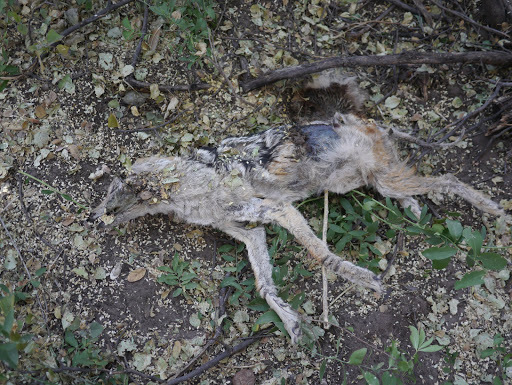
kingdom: Animalia
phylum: Chordata
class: Mammalia
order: Carnivora
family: Canidae
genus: Lupulella
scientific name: Lupulella
